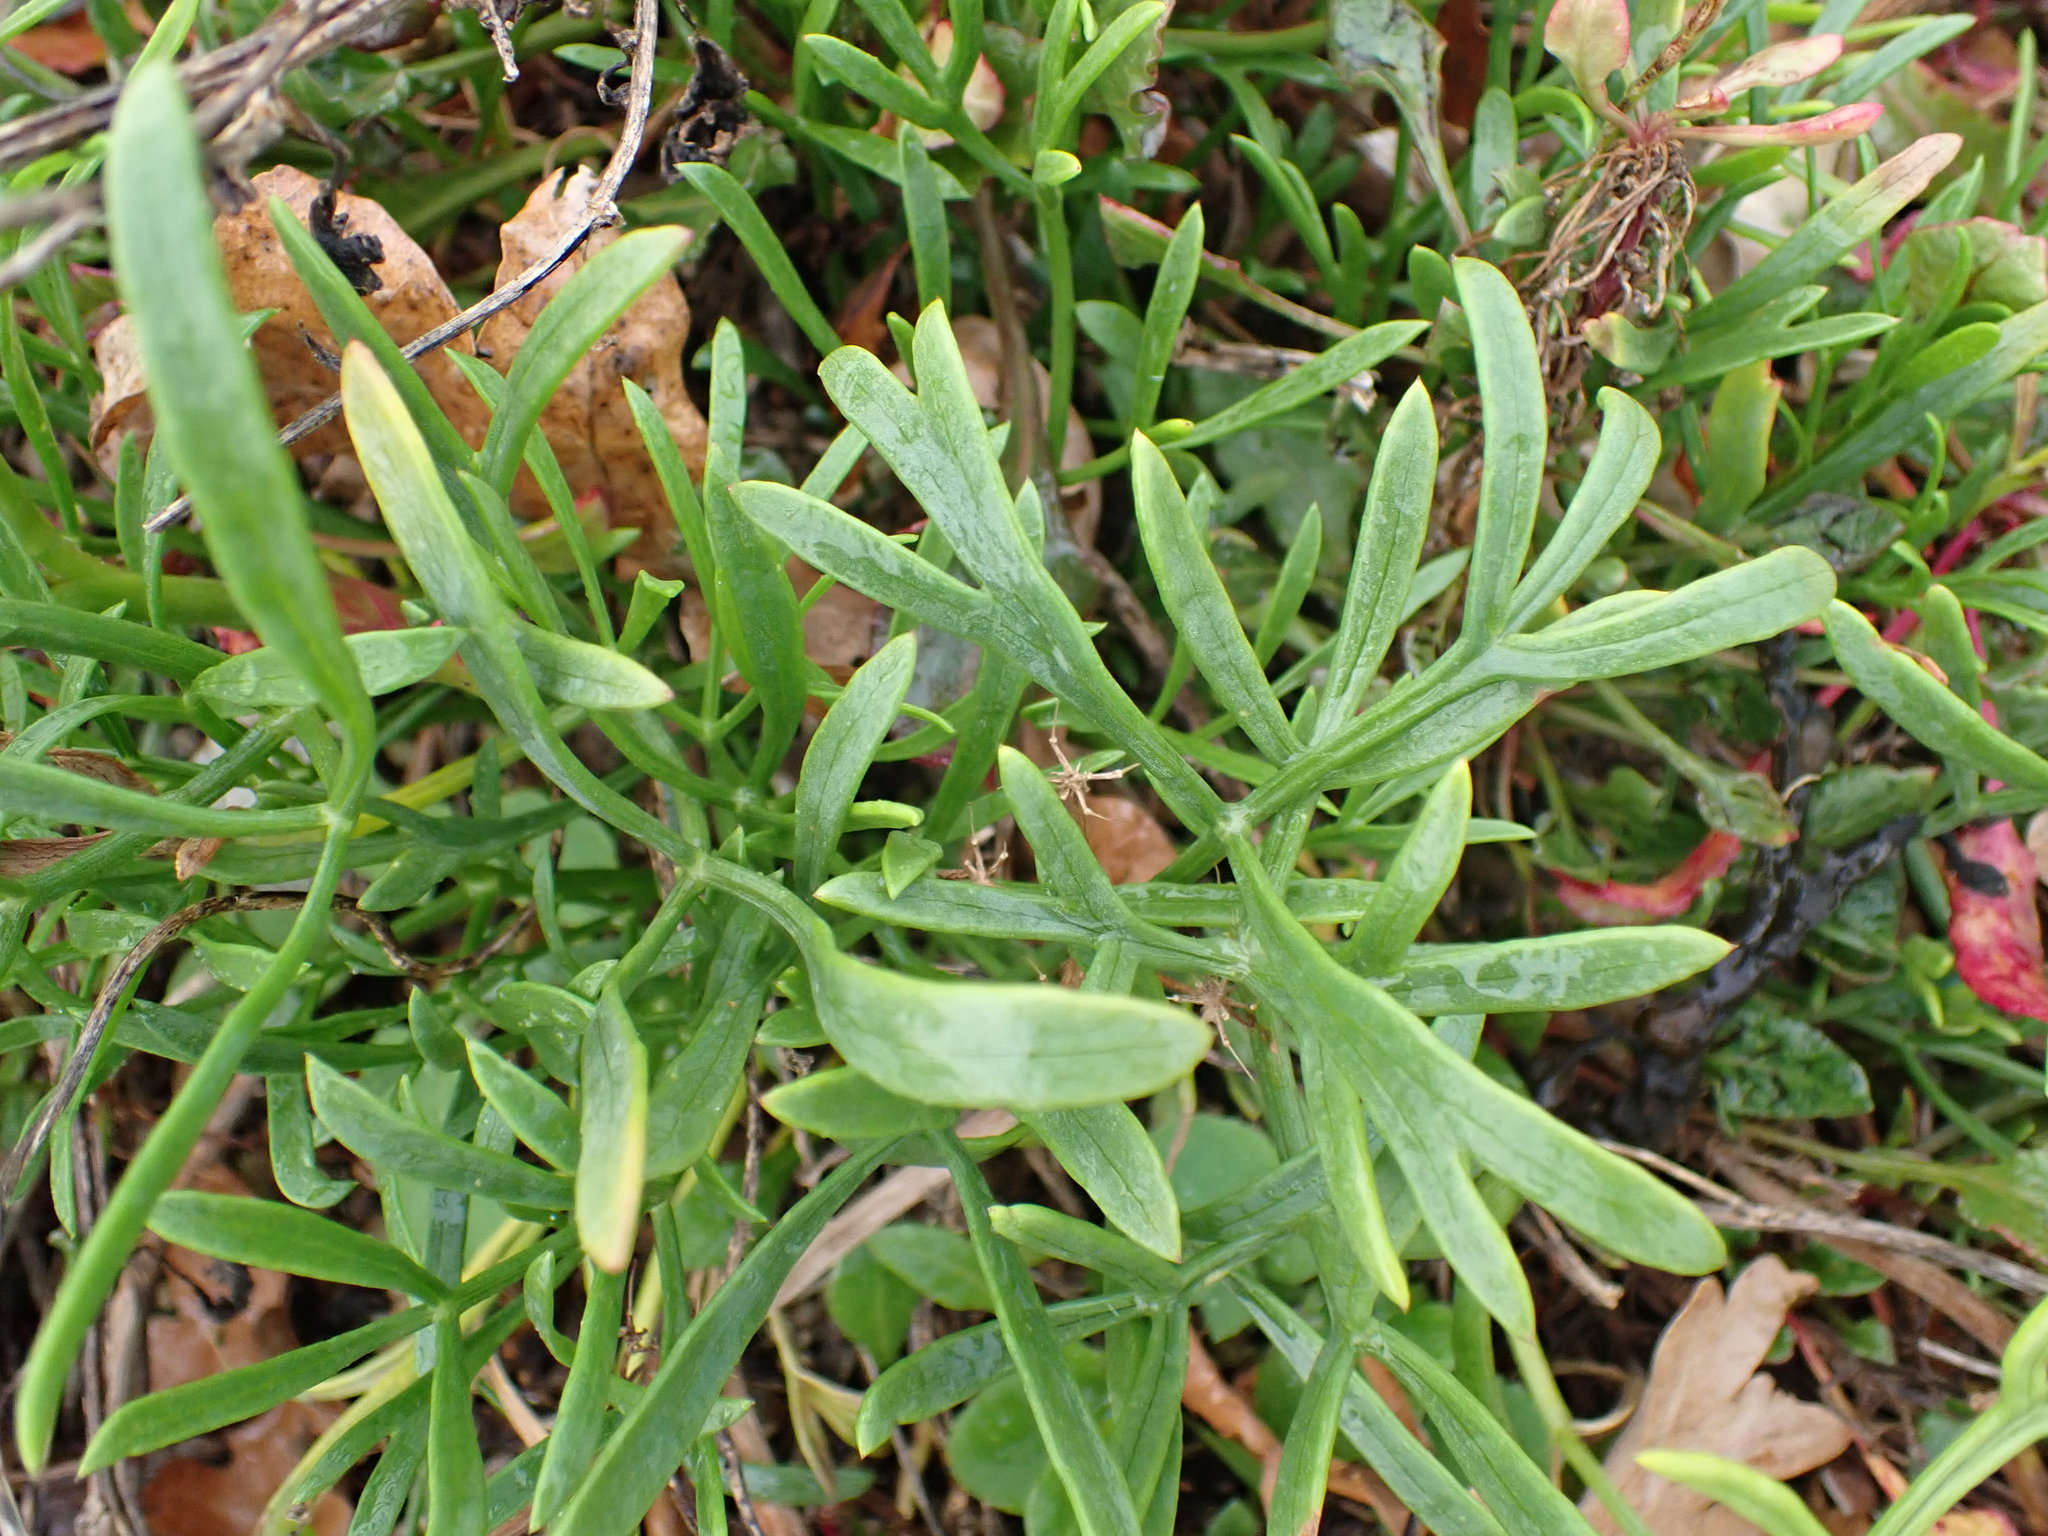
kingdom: Plantae
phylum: Tracheophyta
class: Magnoliopsida
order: Apiales
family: Apiaceae
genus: Crithmum
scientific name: Crithmum maritimum
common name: Rock samphire
